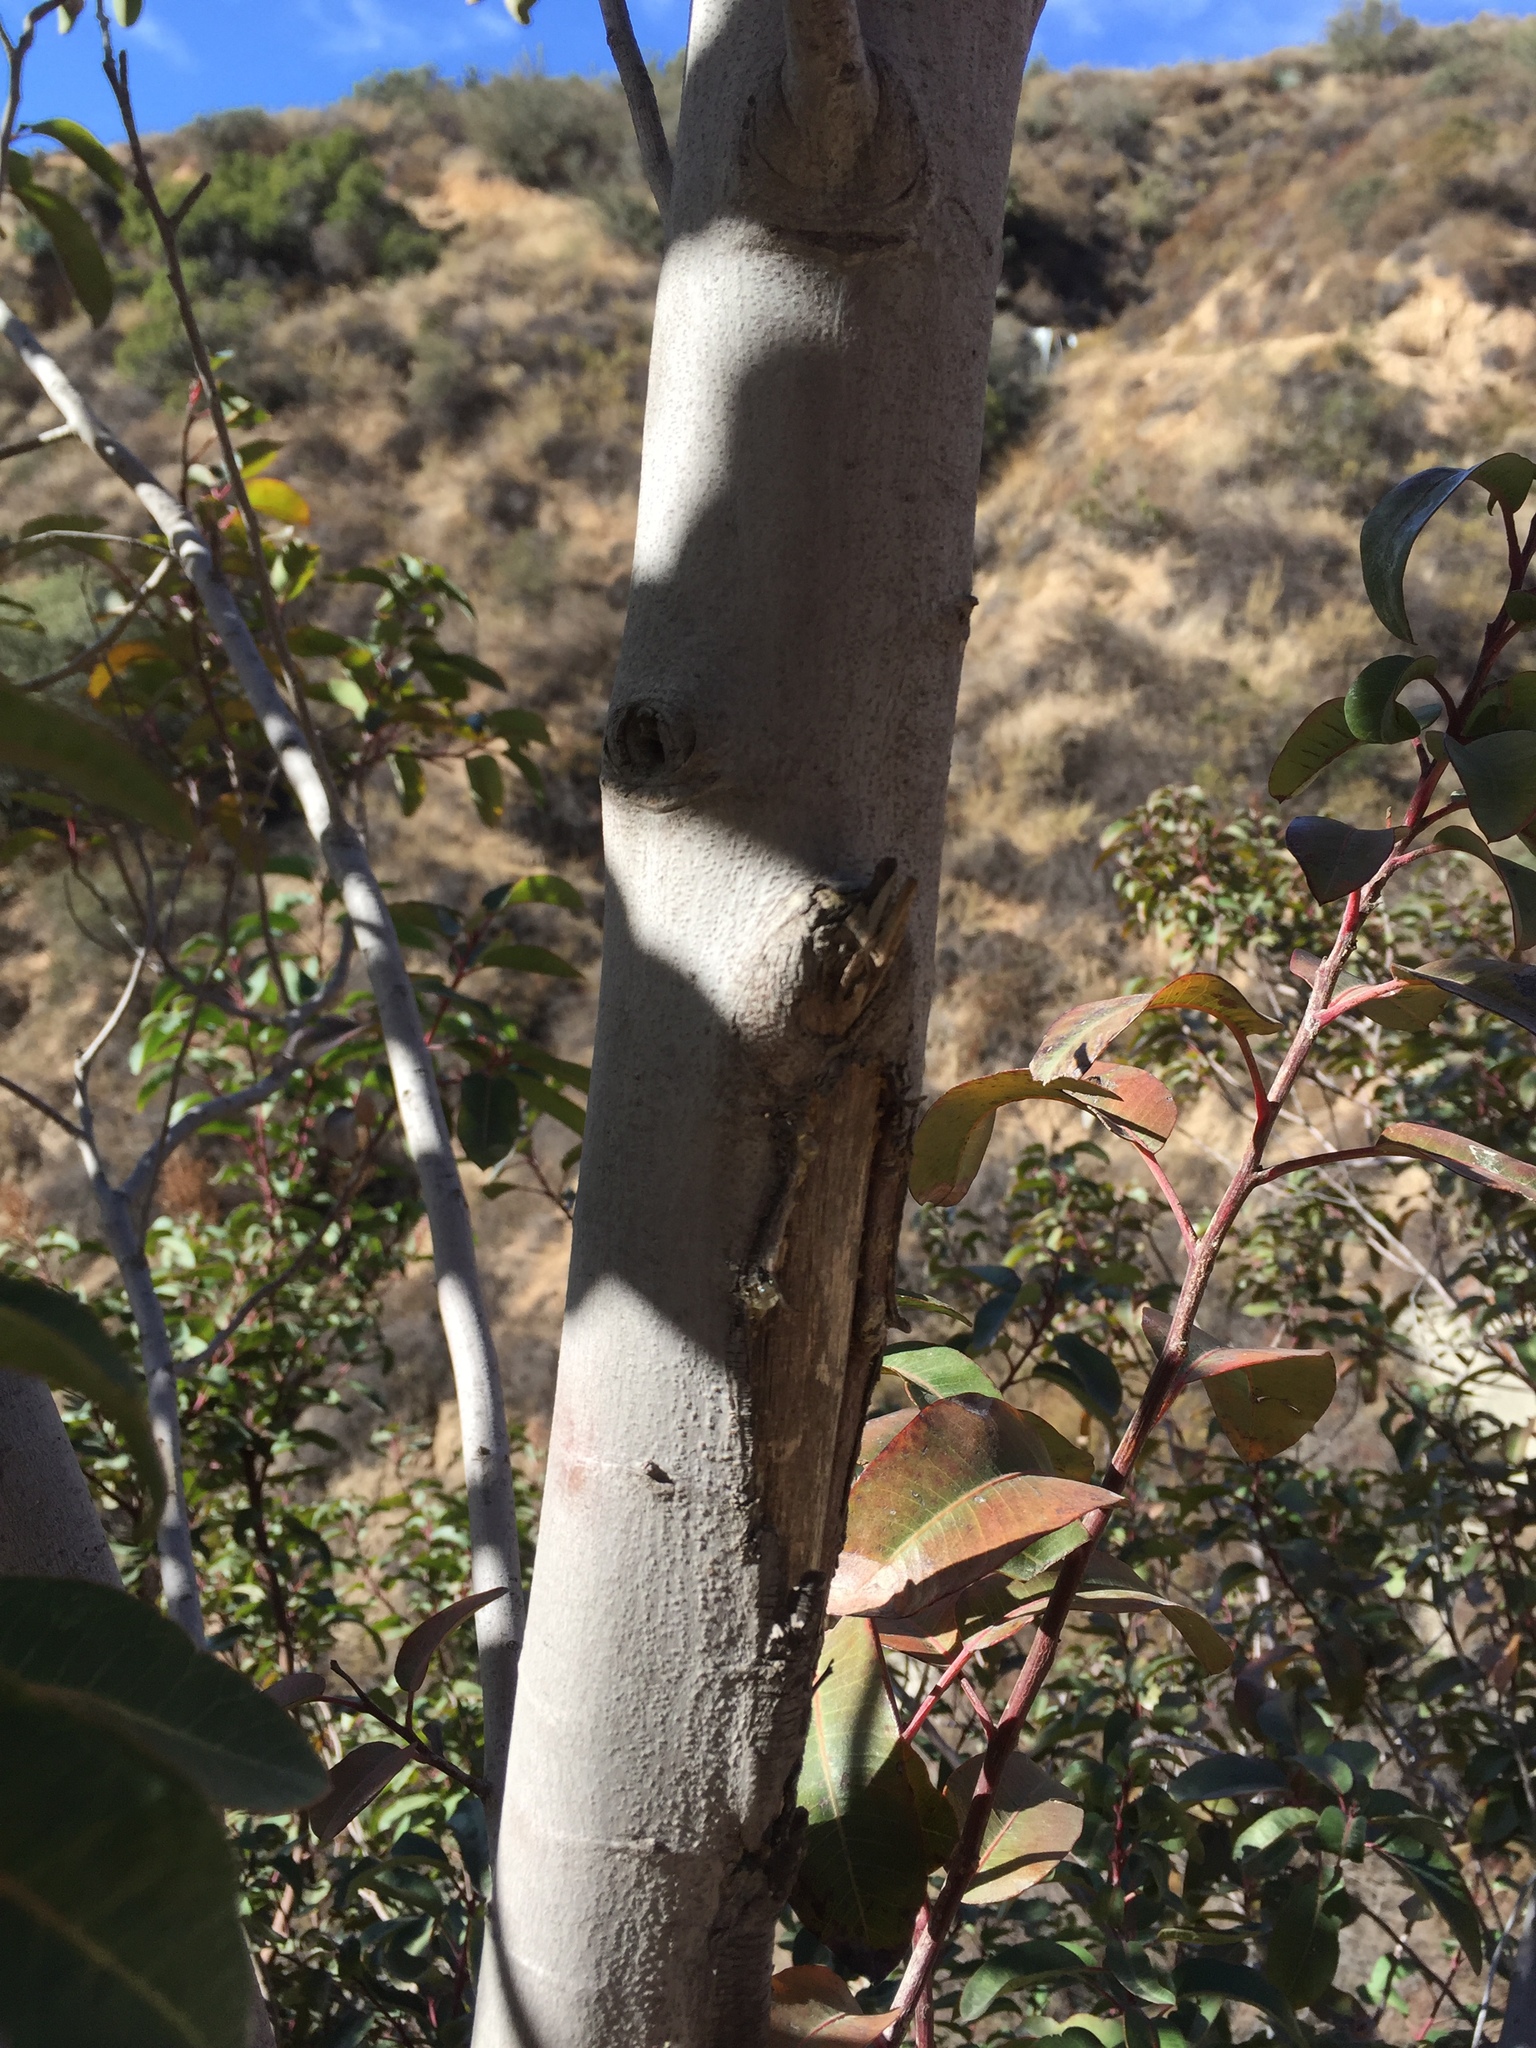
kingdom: Plantae
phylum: Tracheophyta
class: Magnoliopsida
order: Sapindales
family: Anacardiaceae
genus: Malosma
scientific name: Malosma laurina
